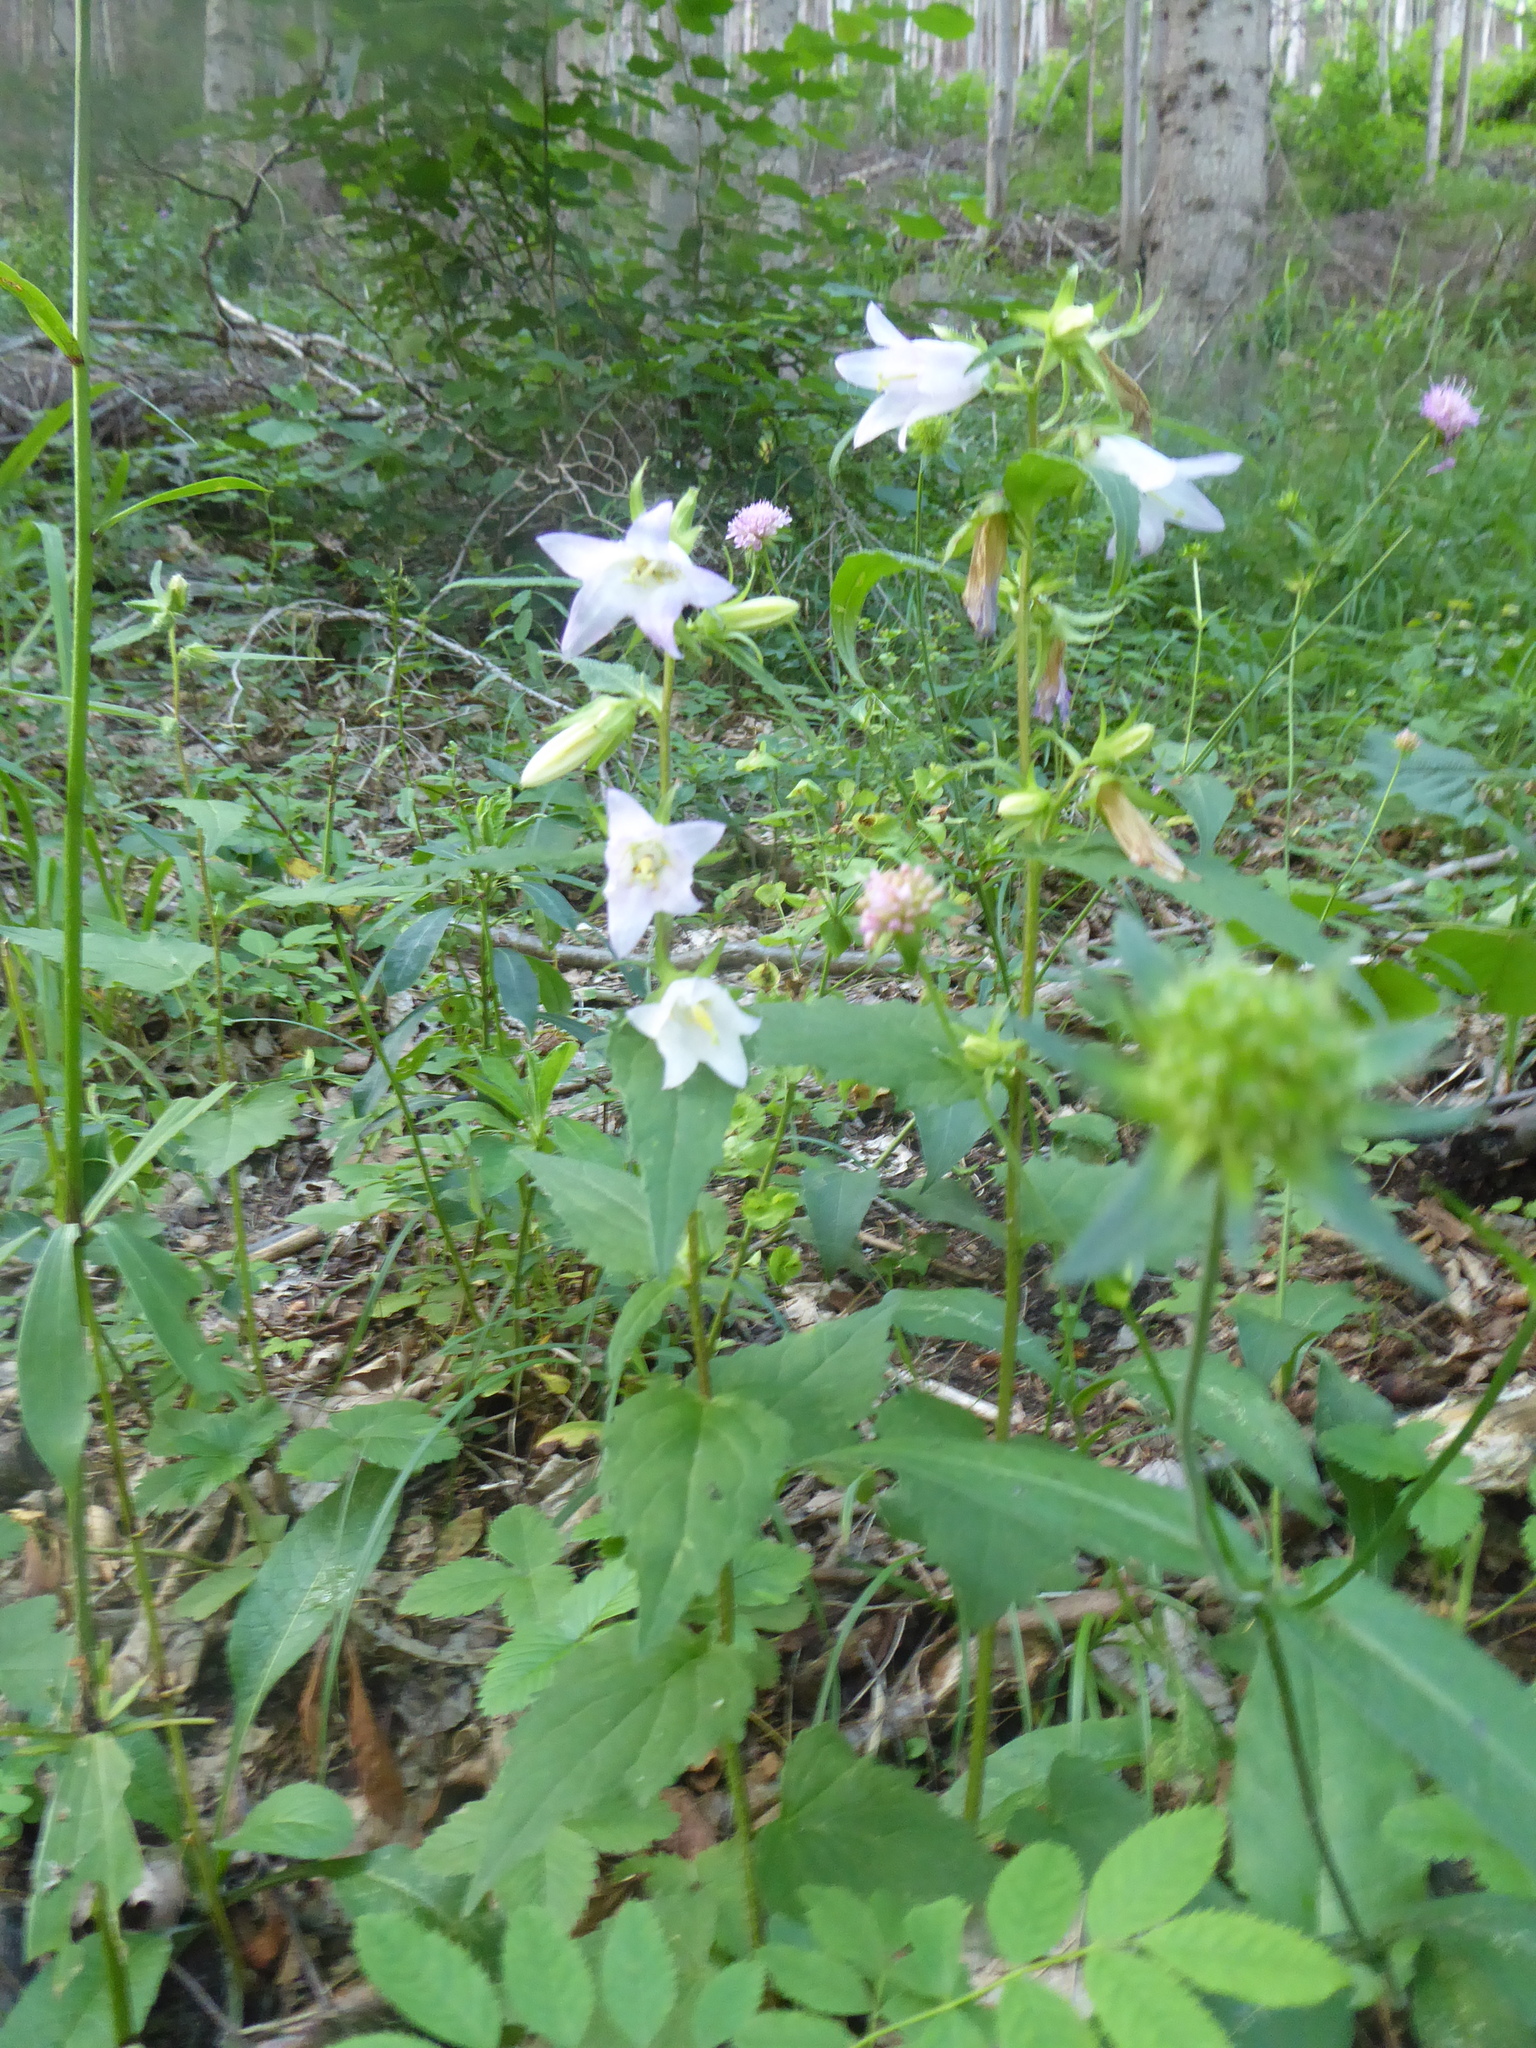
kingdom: Plantae
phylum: Tracheophyta
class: Magnoliopsida
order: Asterales
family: Campanulaceae
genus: Campanula
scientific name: Campanula trachelium
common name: Nettle-leaved bellflower
